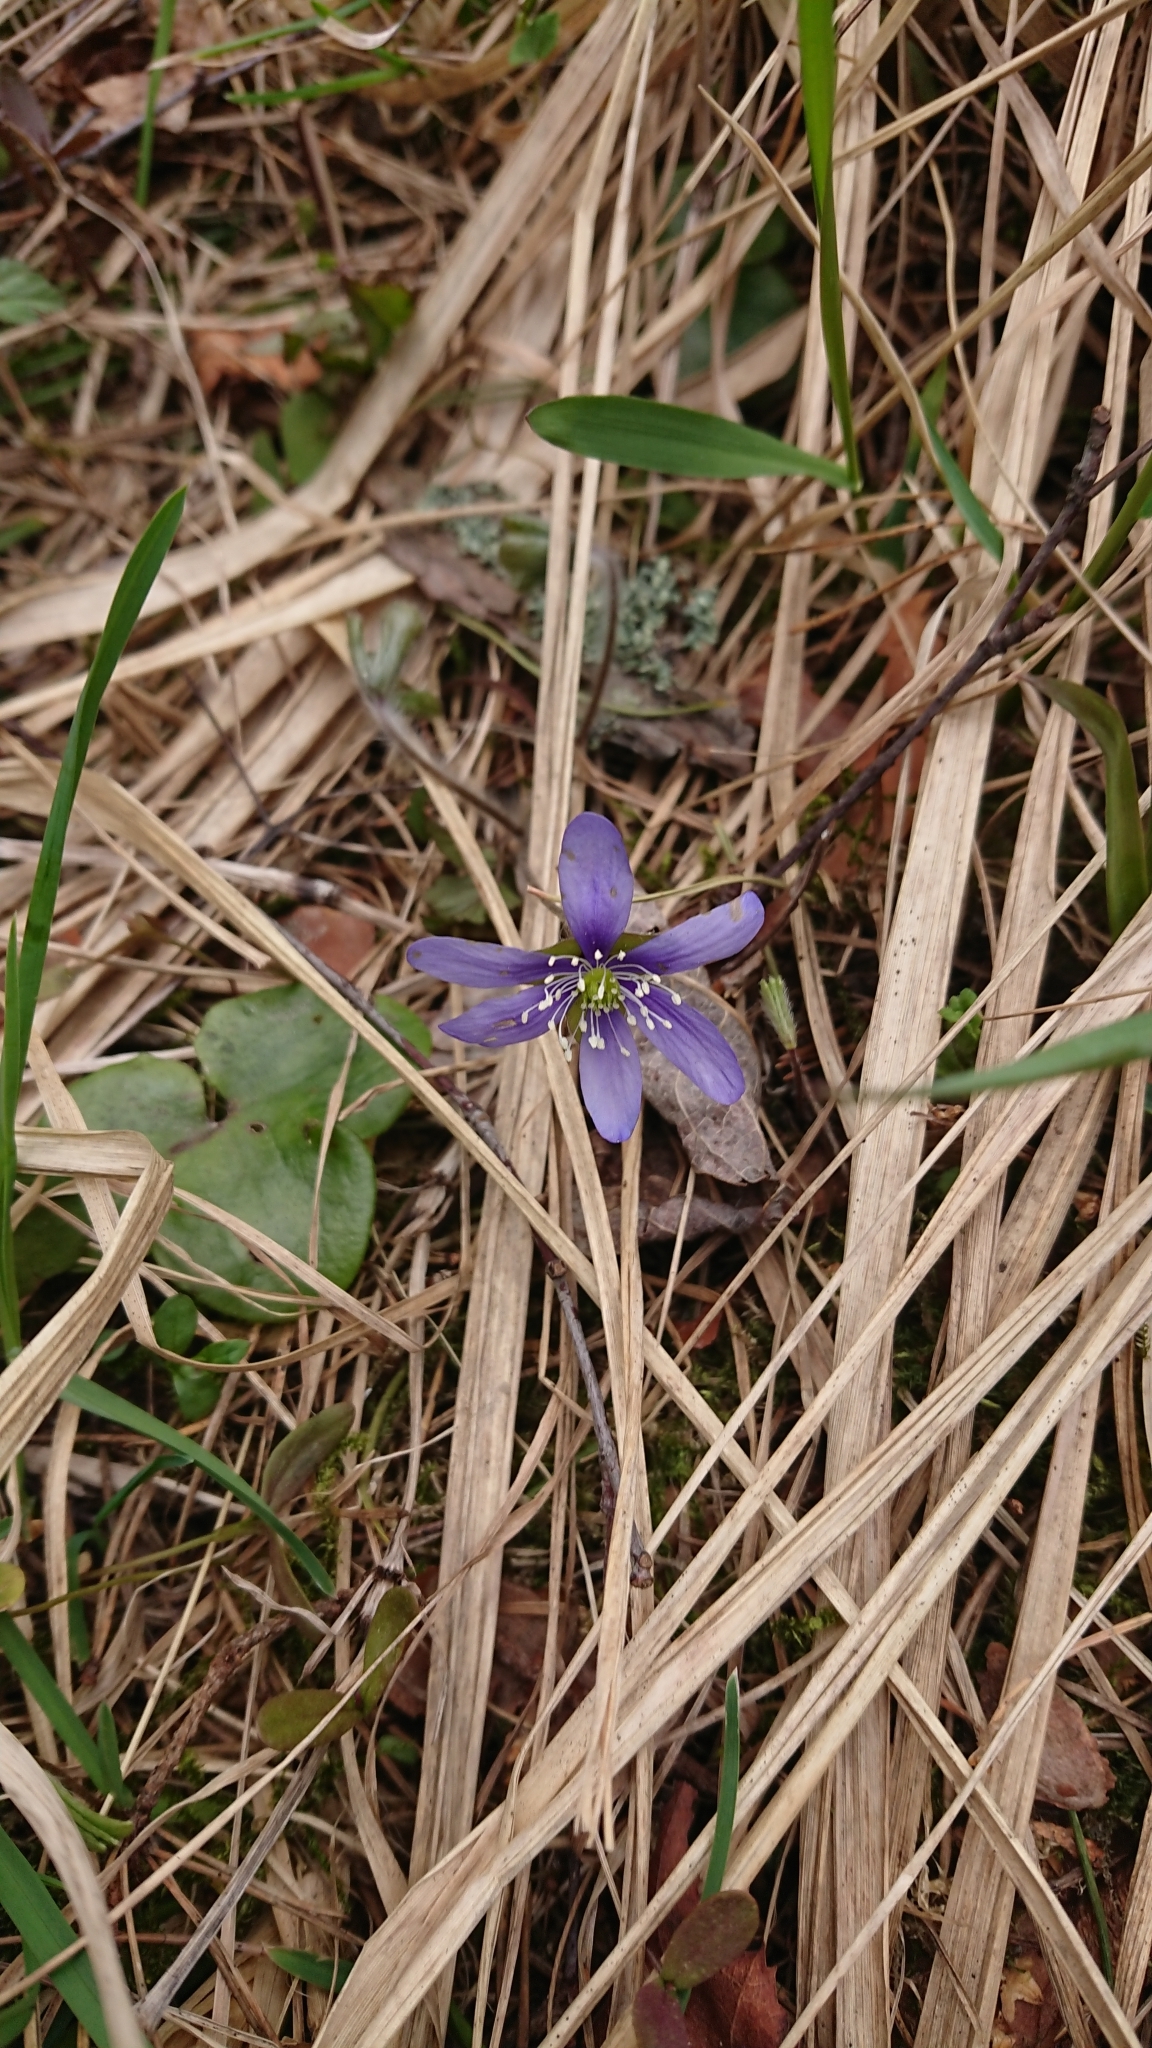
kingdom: Plantae
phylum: Tracheophyta
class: Magnoliopsida
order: Ranunculales
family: Ranunculaceae
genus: Hepatica
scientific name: Hepatica nobilis
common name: Liverleaf
